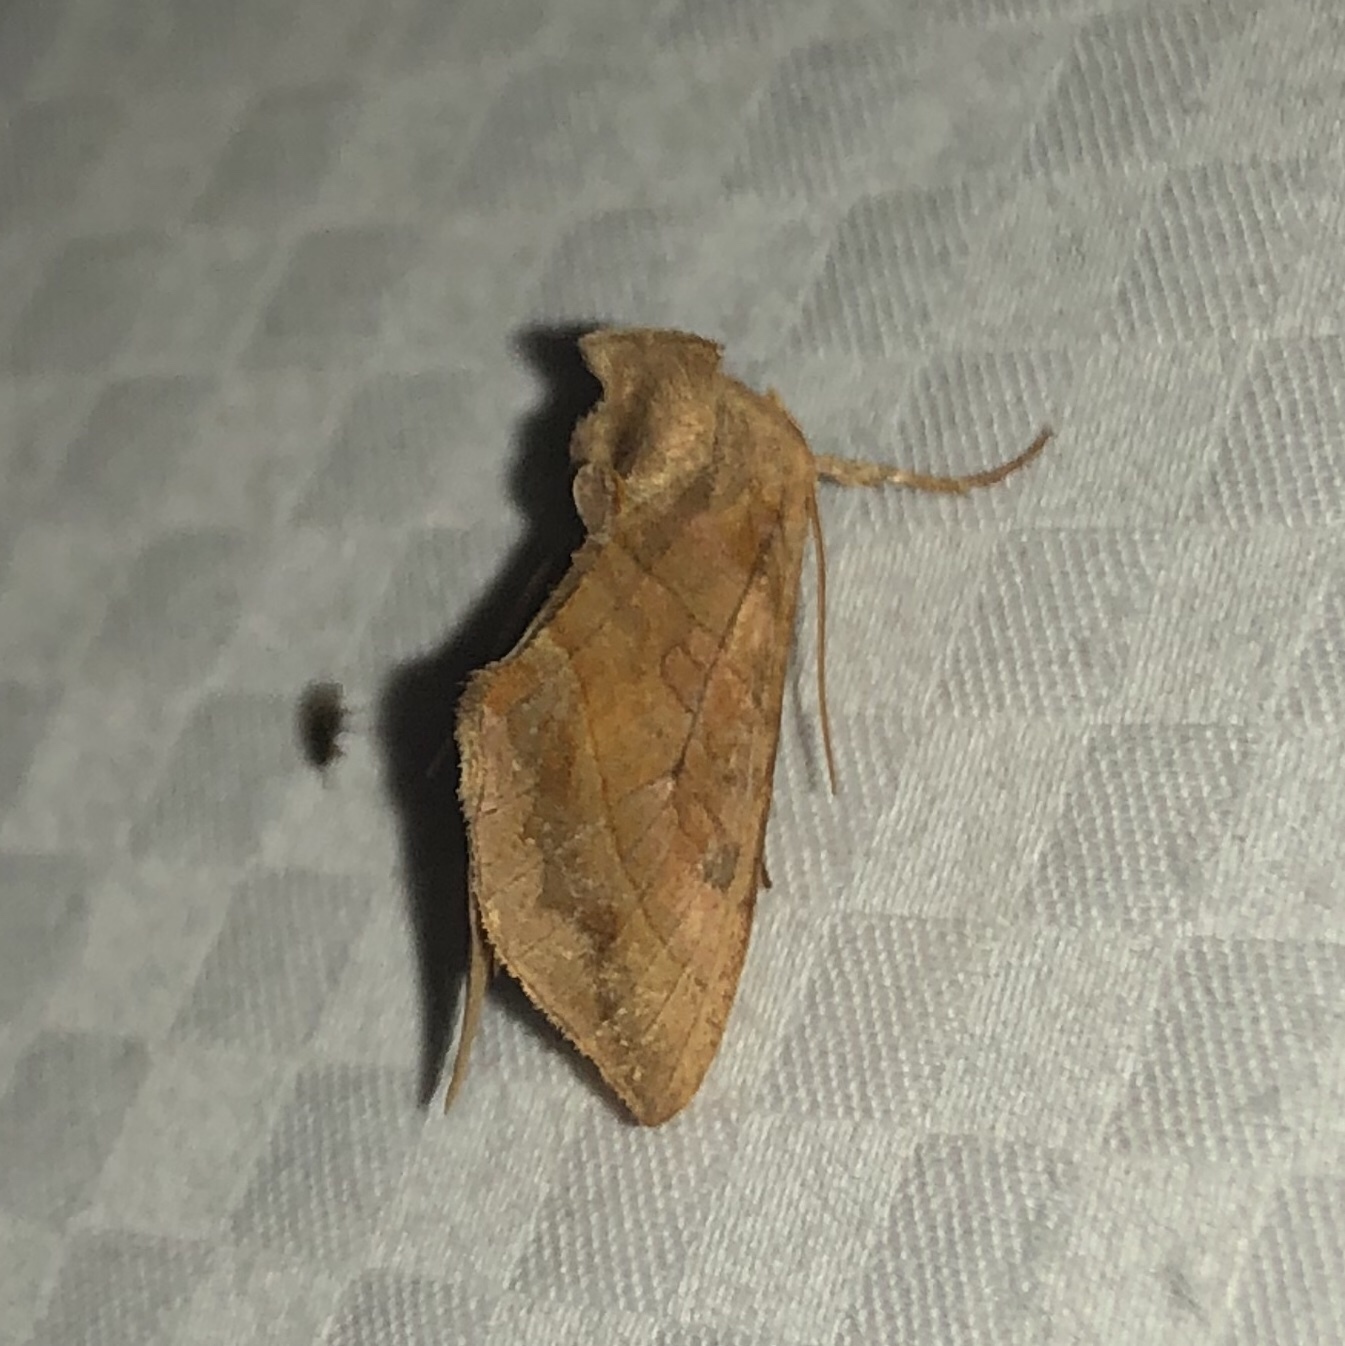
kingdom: Animalia
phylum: Arthropoda
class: Insecta
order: Lepidoptera
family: Noctuidae
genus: Diachrysia
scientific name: Diachrysia aereoides
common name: Dark-spotted looper moth
